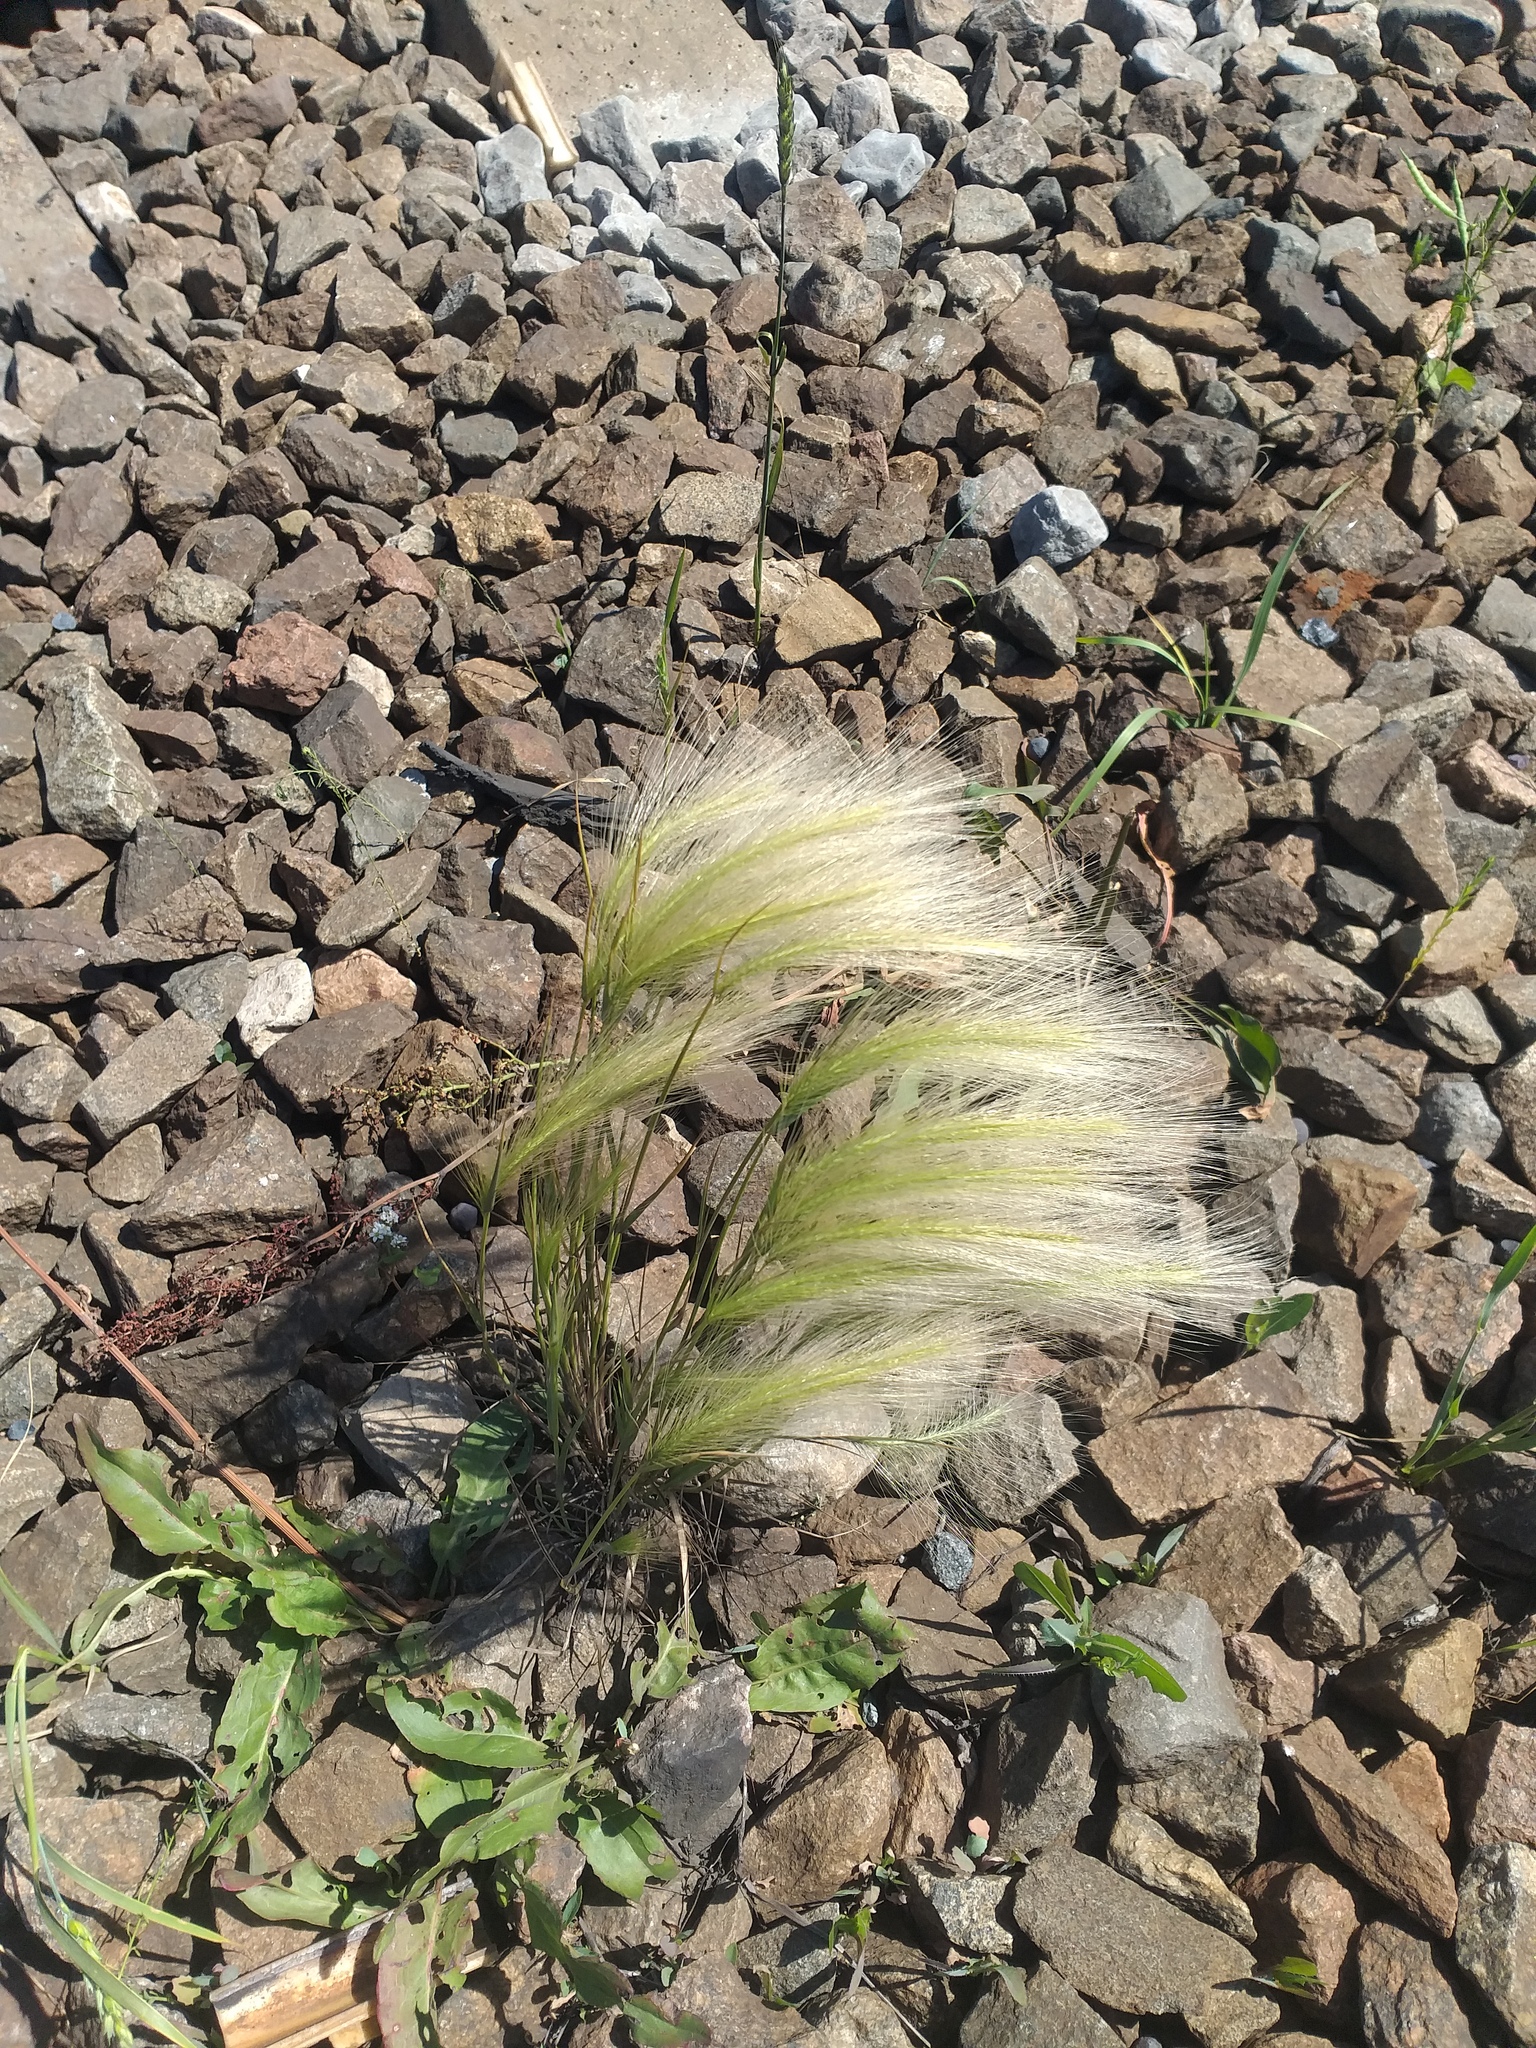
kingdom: Plantae
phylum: Tracheophyta
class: Liliopsida
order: Poales
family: Poaceae
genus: Hordeum
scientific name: Hordeum jubatum
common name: Foxtail barley
